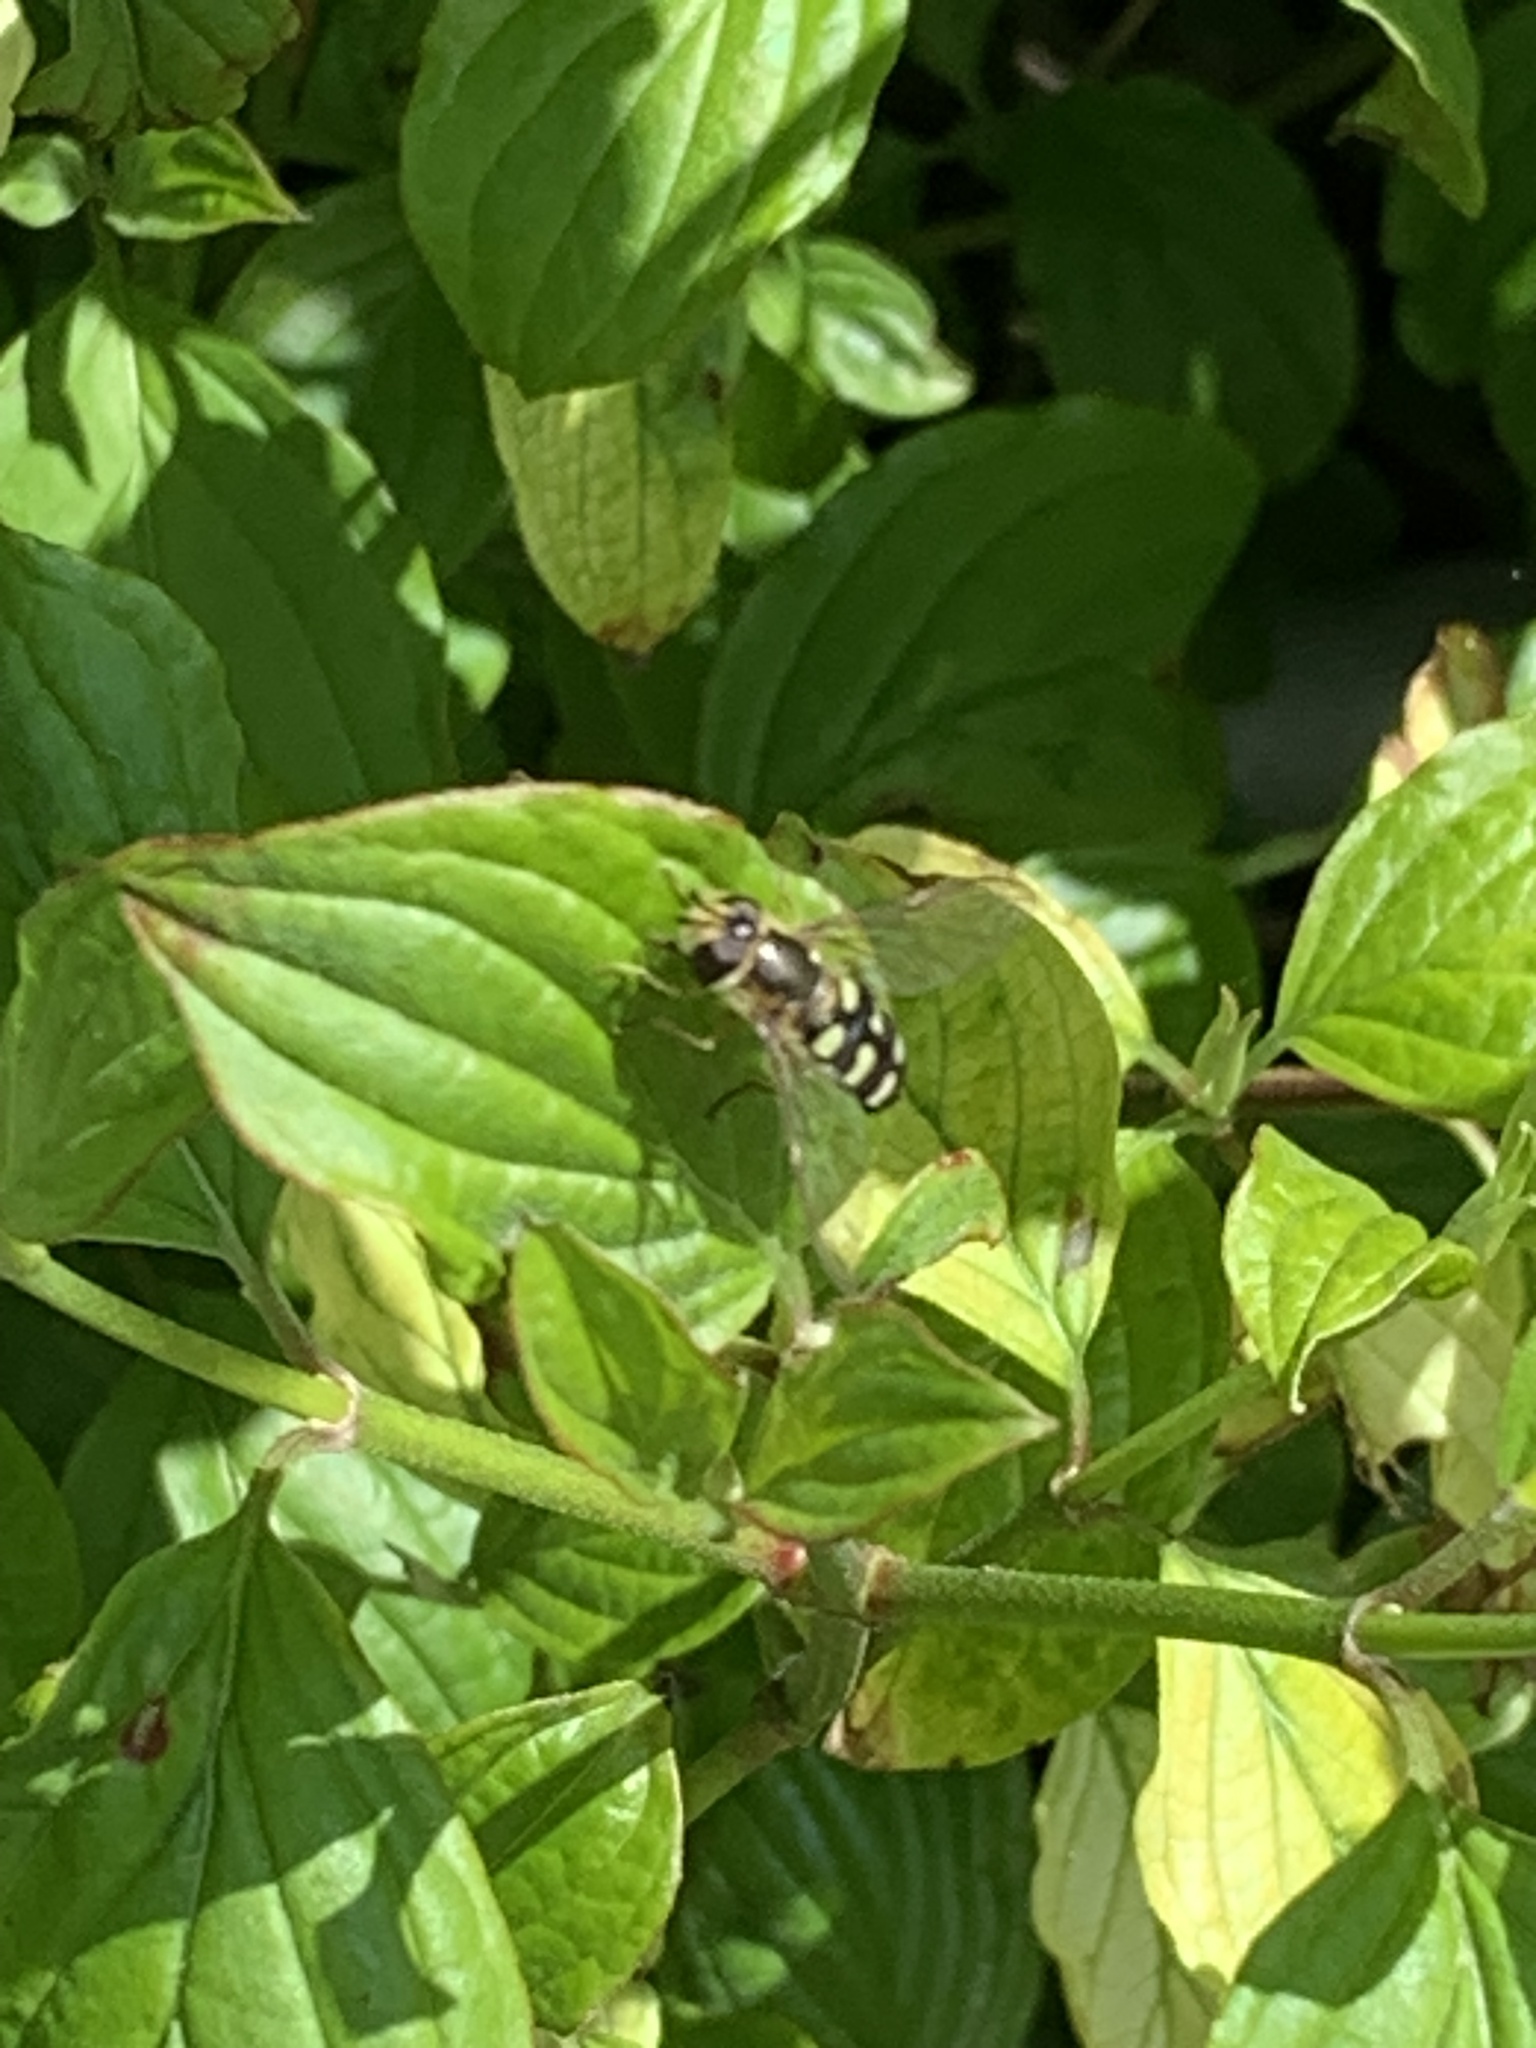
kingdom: Animalia
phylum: Arthropoda
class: Insecta
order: Diptera
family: Syrphidae
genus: Eupeodes
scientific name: Eupeodes
